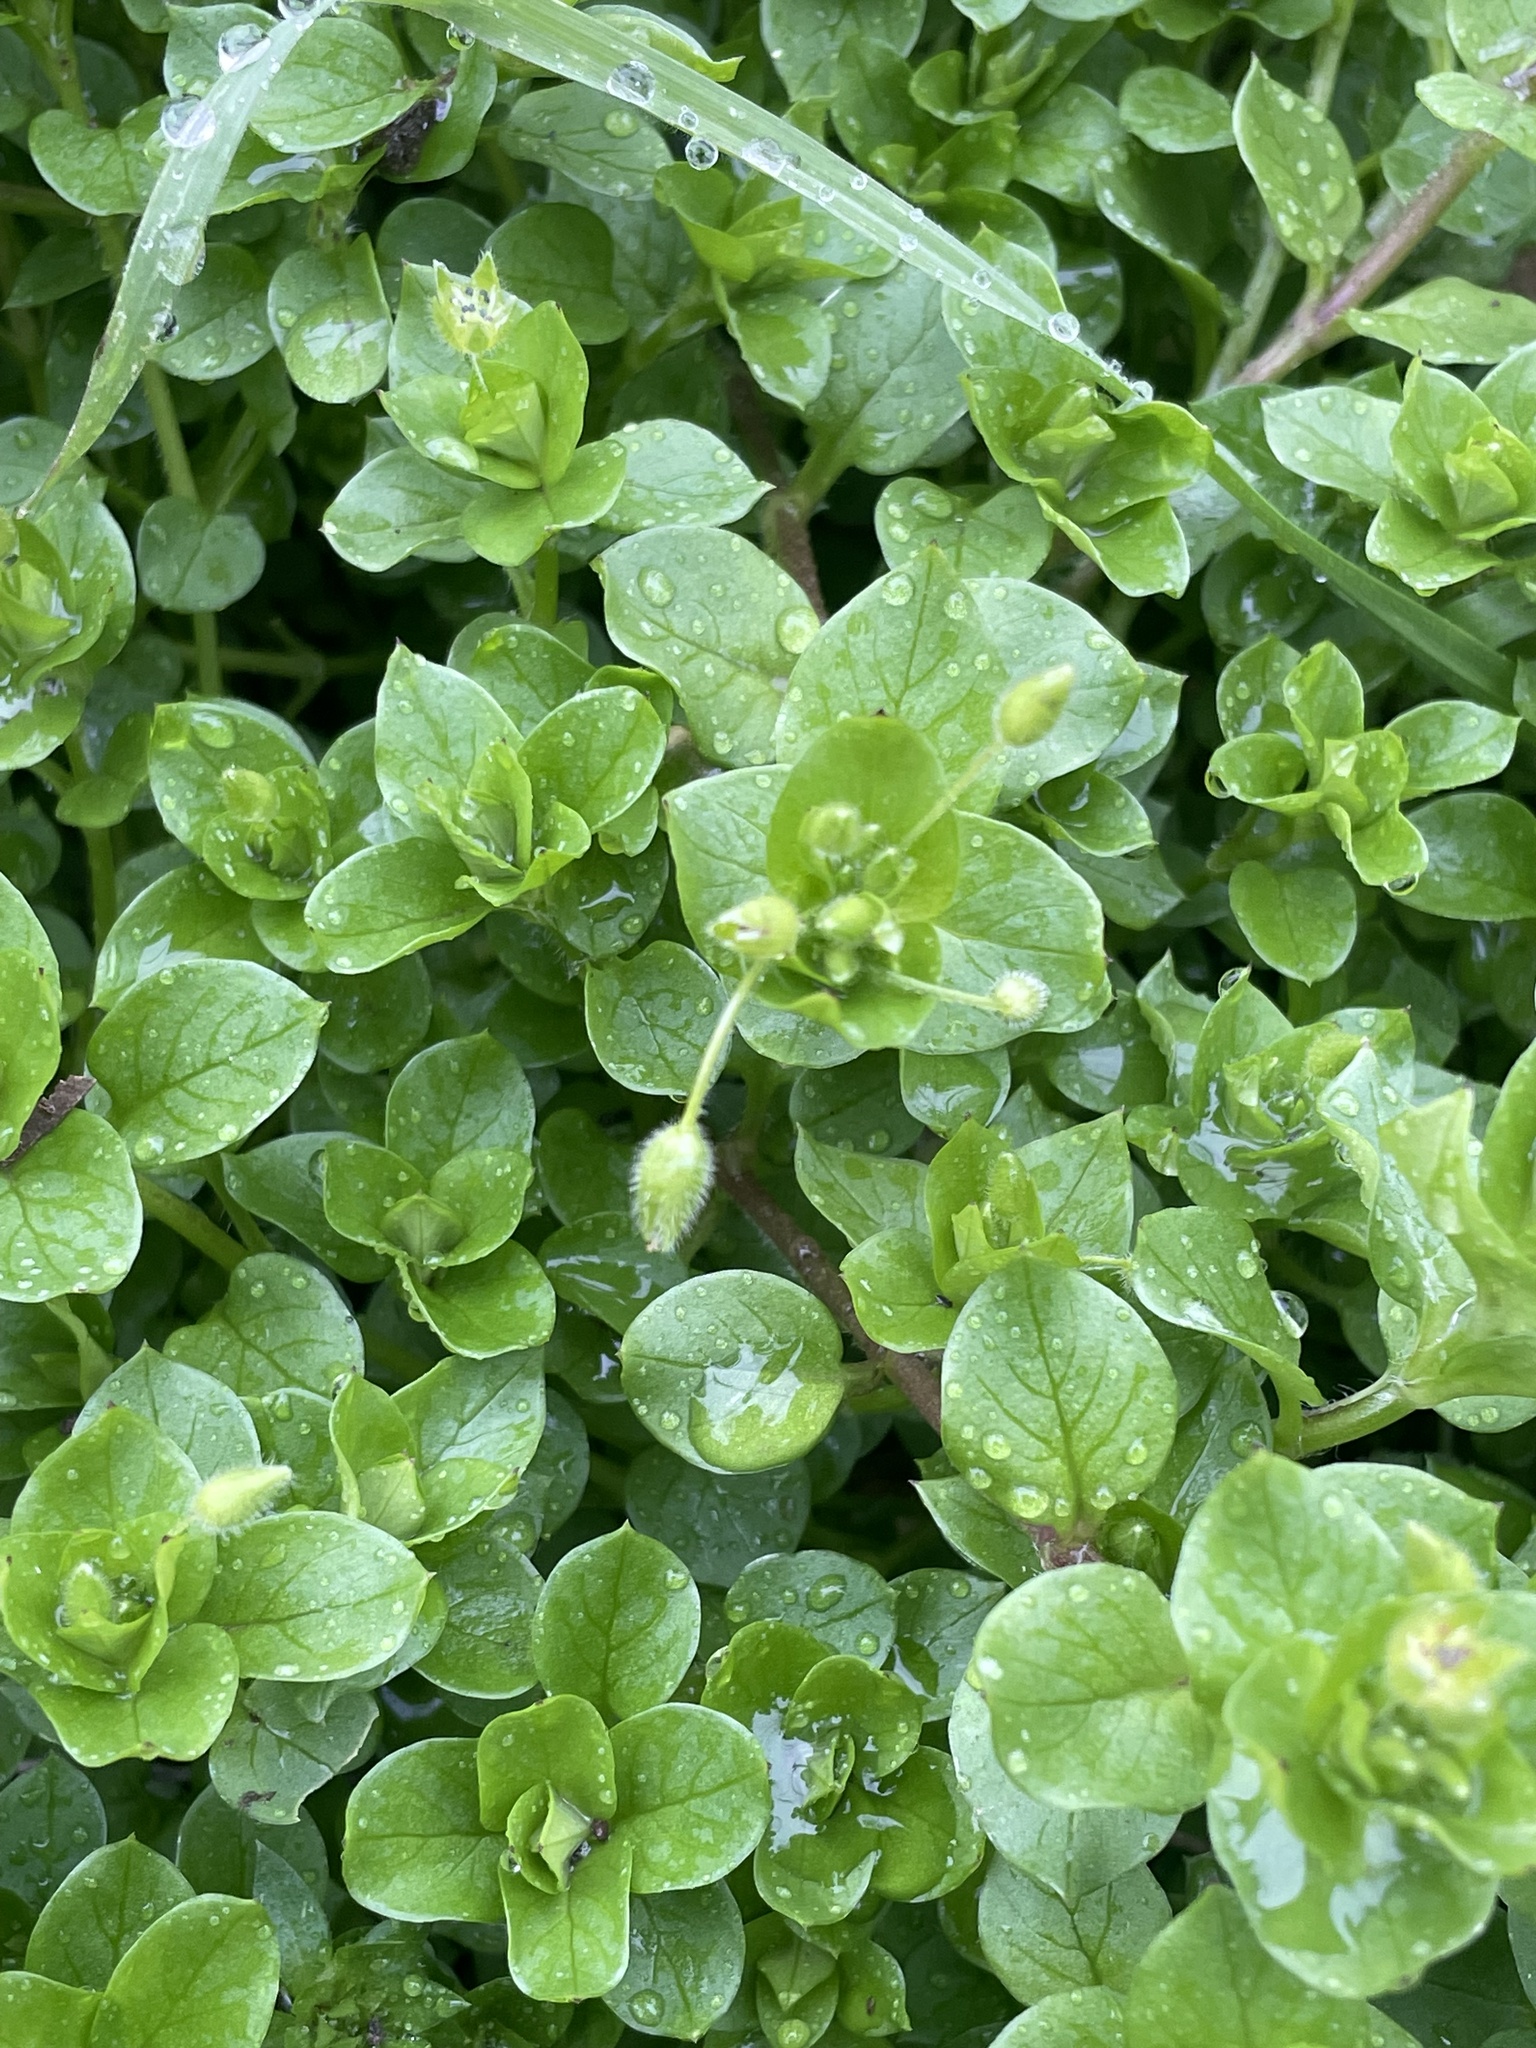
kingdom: Plantae
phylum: Tracheophyta
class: Magnoliopsida
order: Caryophyllales
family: Caryophyllaceae
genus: Stellaria
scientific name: Stellaria media
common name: Common chickweed
